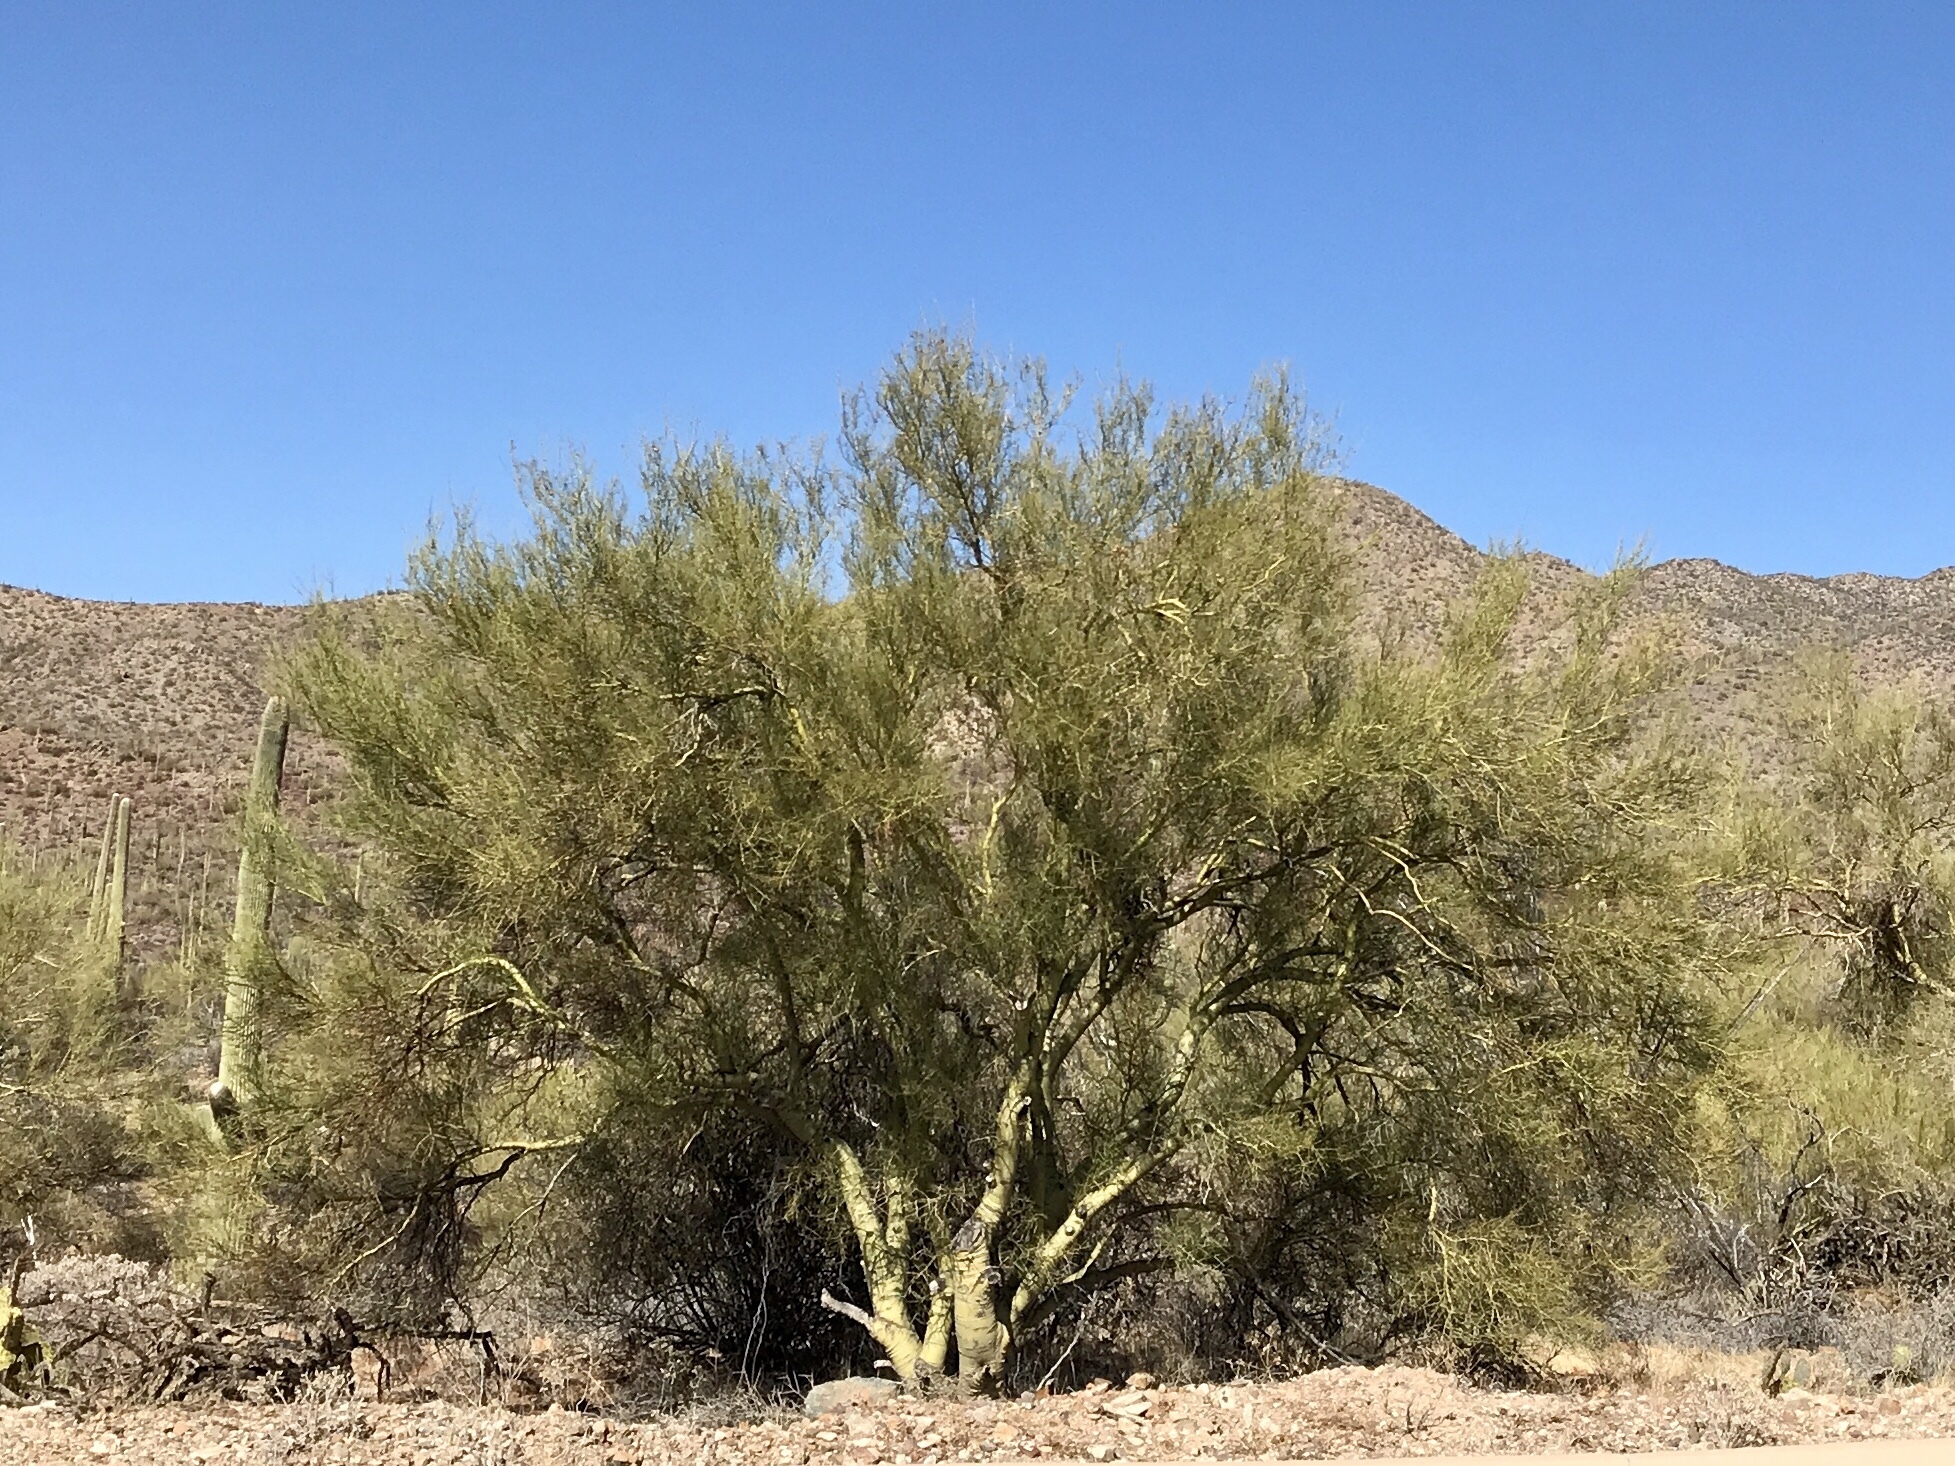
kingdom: Plantae
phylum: Tracheophyta
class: Magnoliopsida
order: Fabales
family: Fabaceae
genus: Parkinsonia
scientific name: Parkinsonia microphylla
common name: Yellow paloverde
